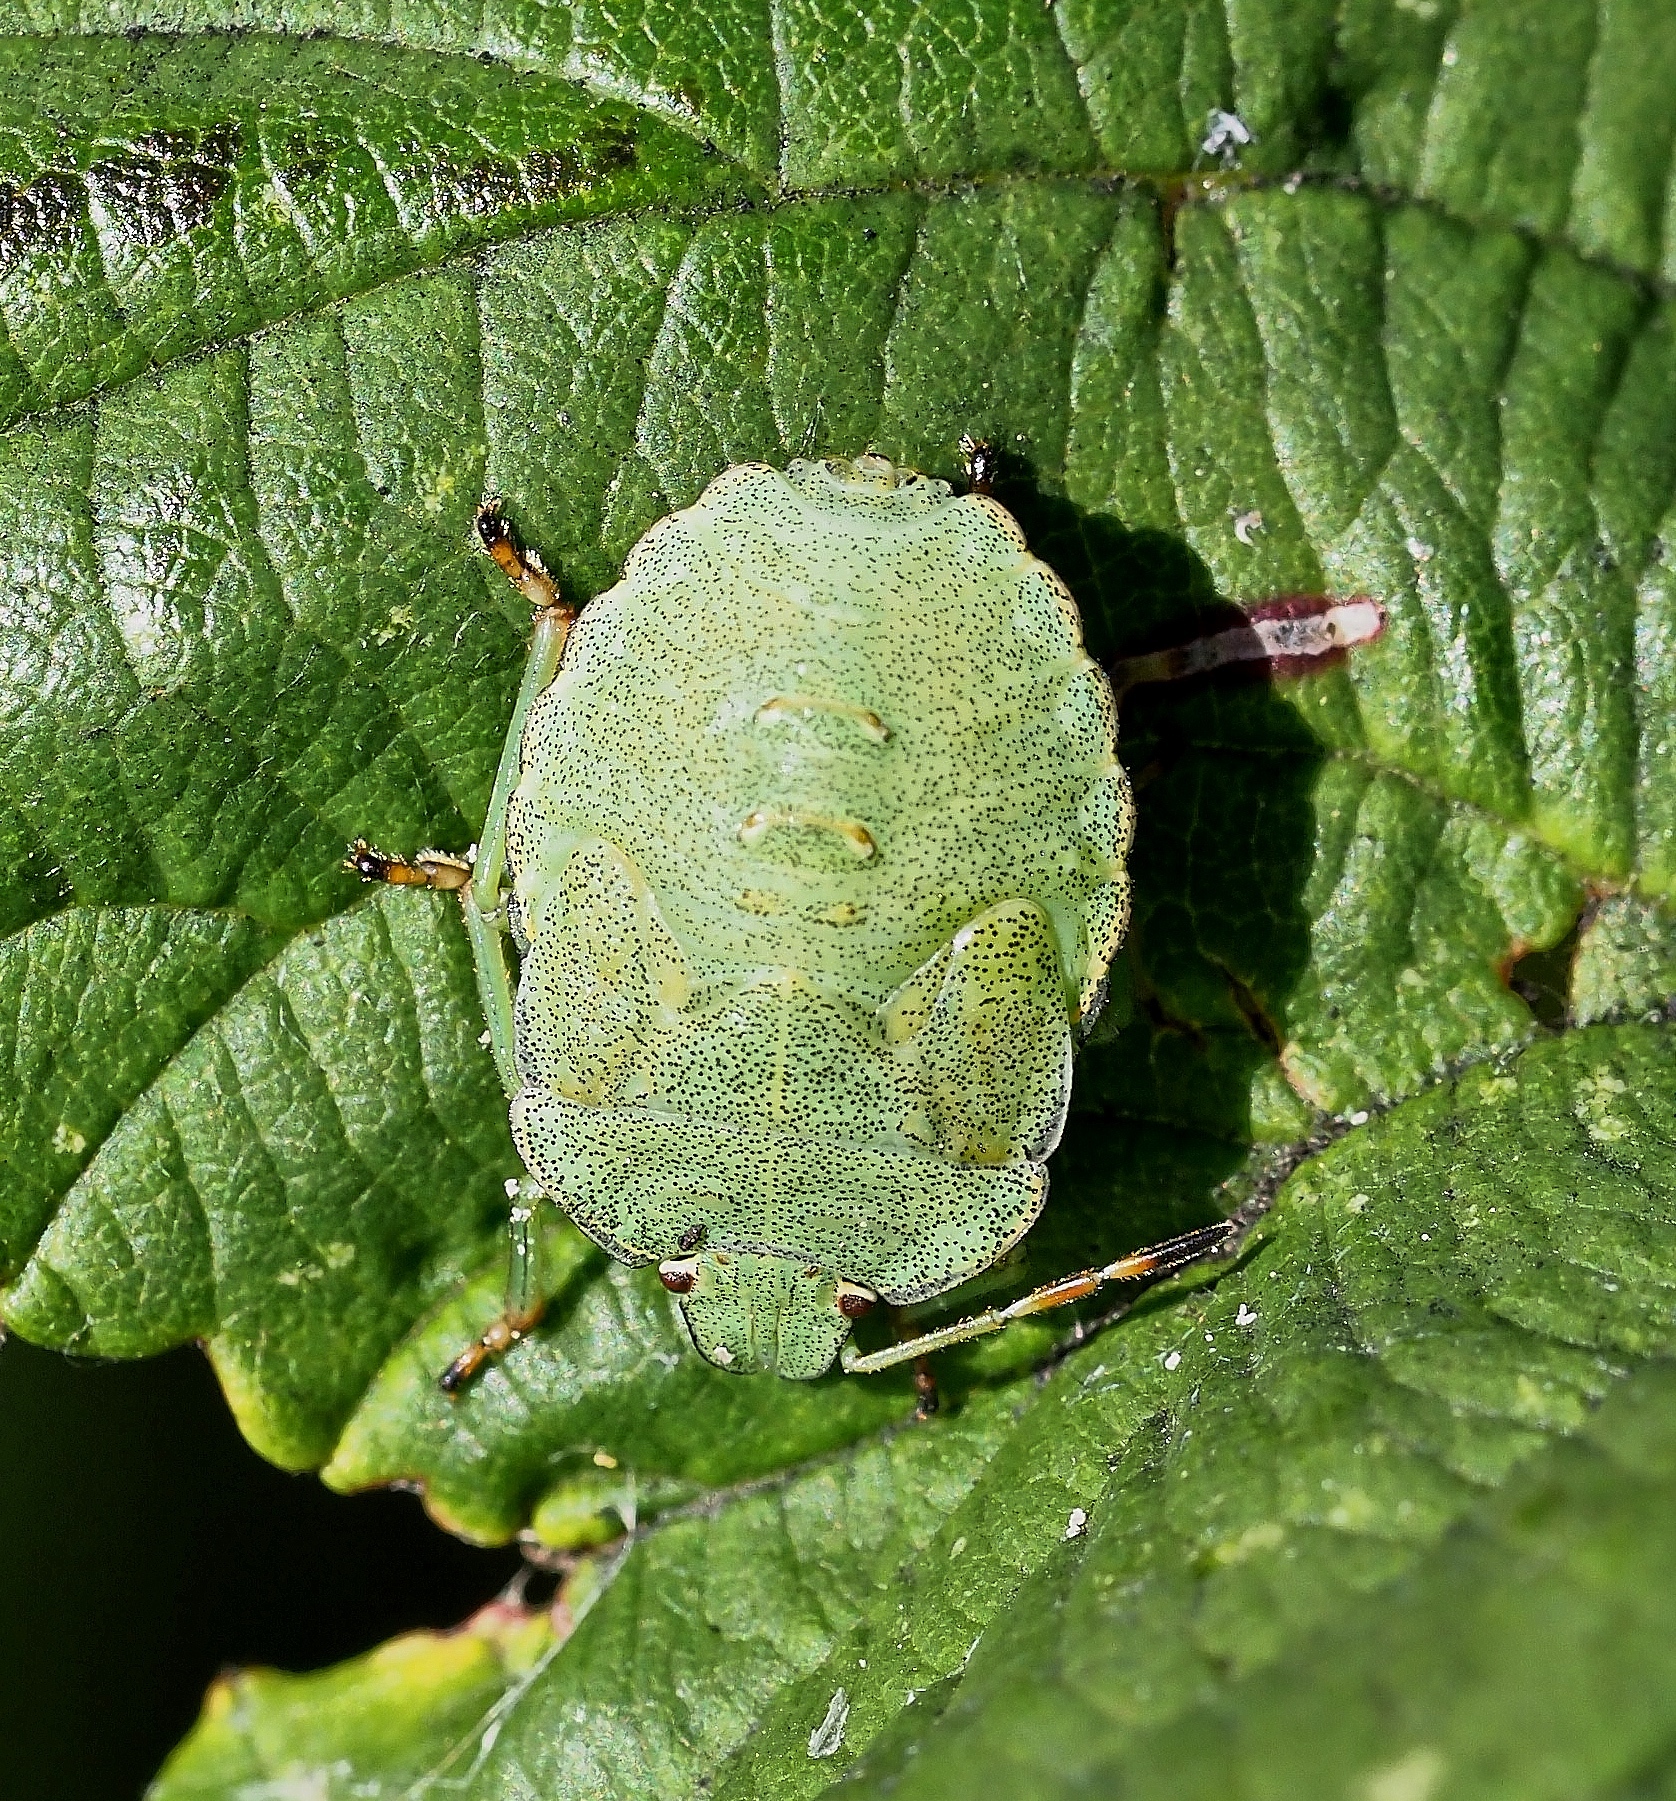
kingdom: Animalia
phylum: Arthropoda
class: Insecta
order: Hemiptera
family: Pentatomidae
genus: Palomena
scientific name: Palomena prasina
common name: Green shieldbug
